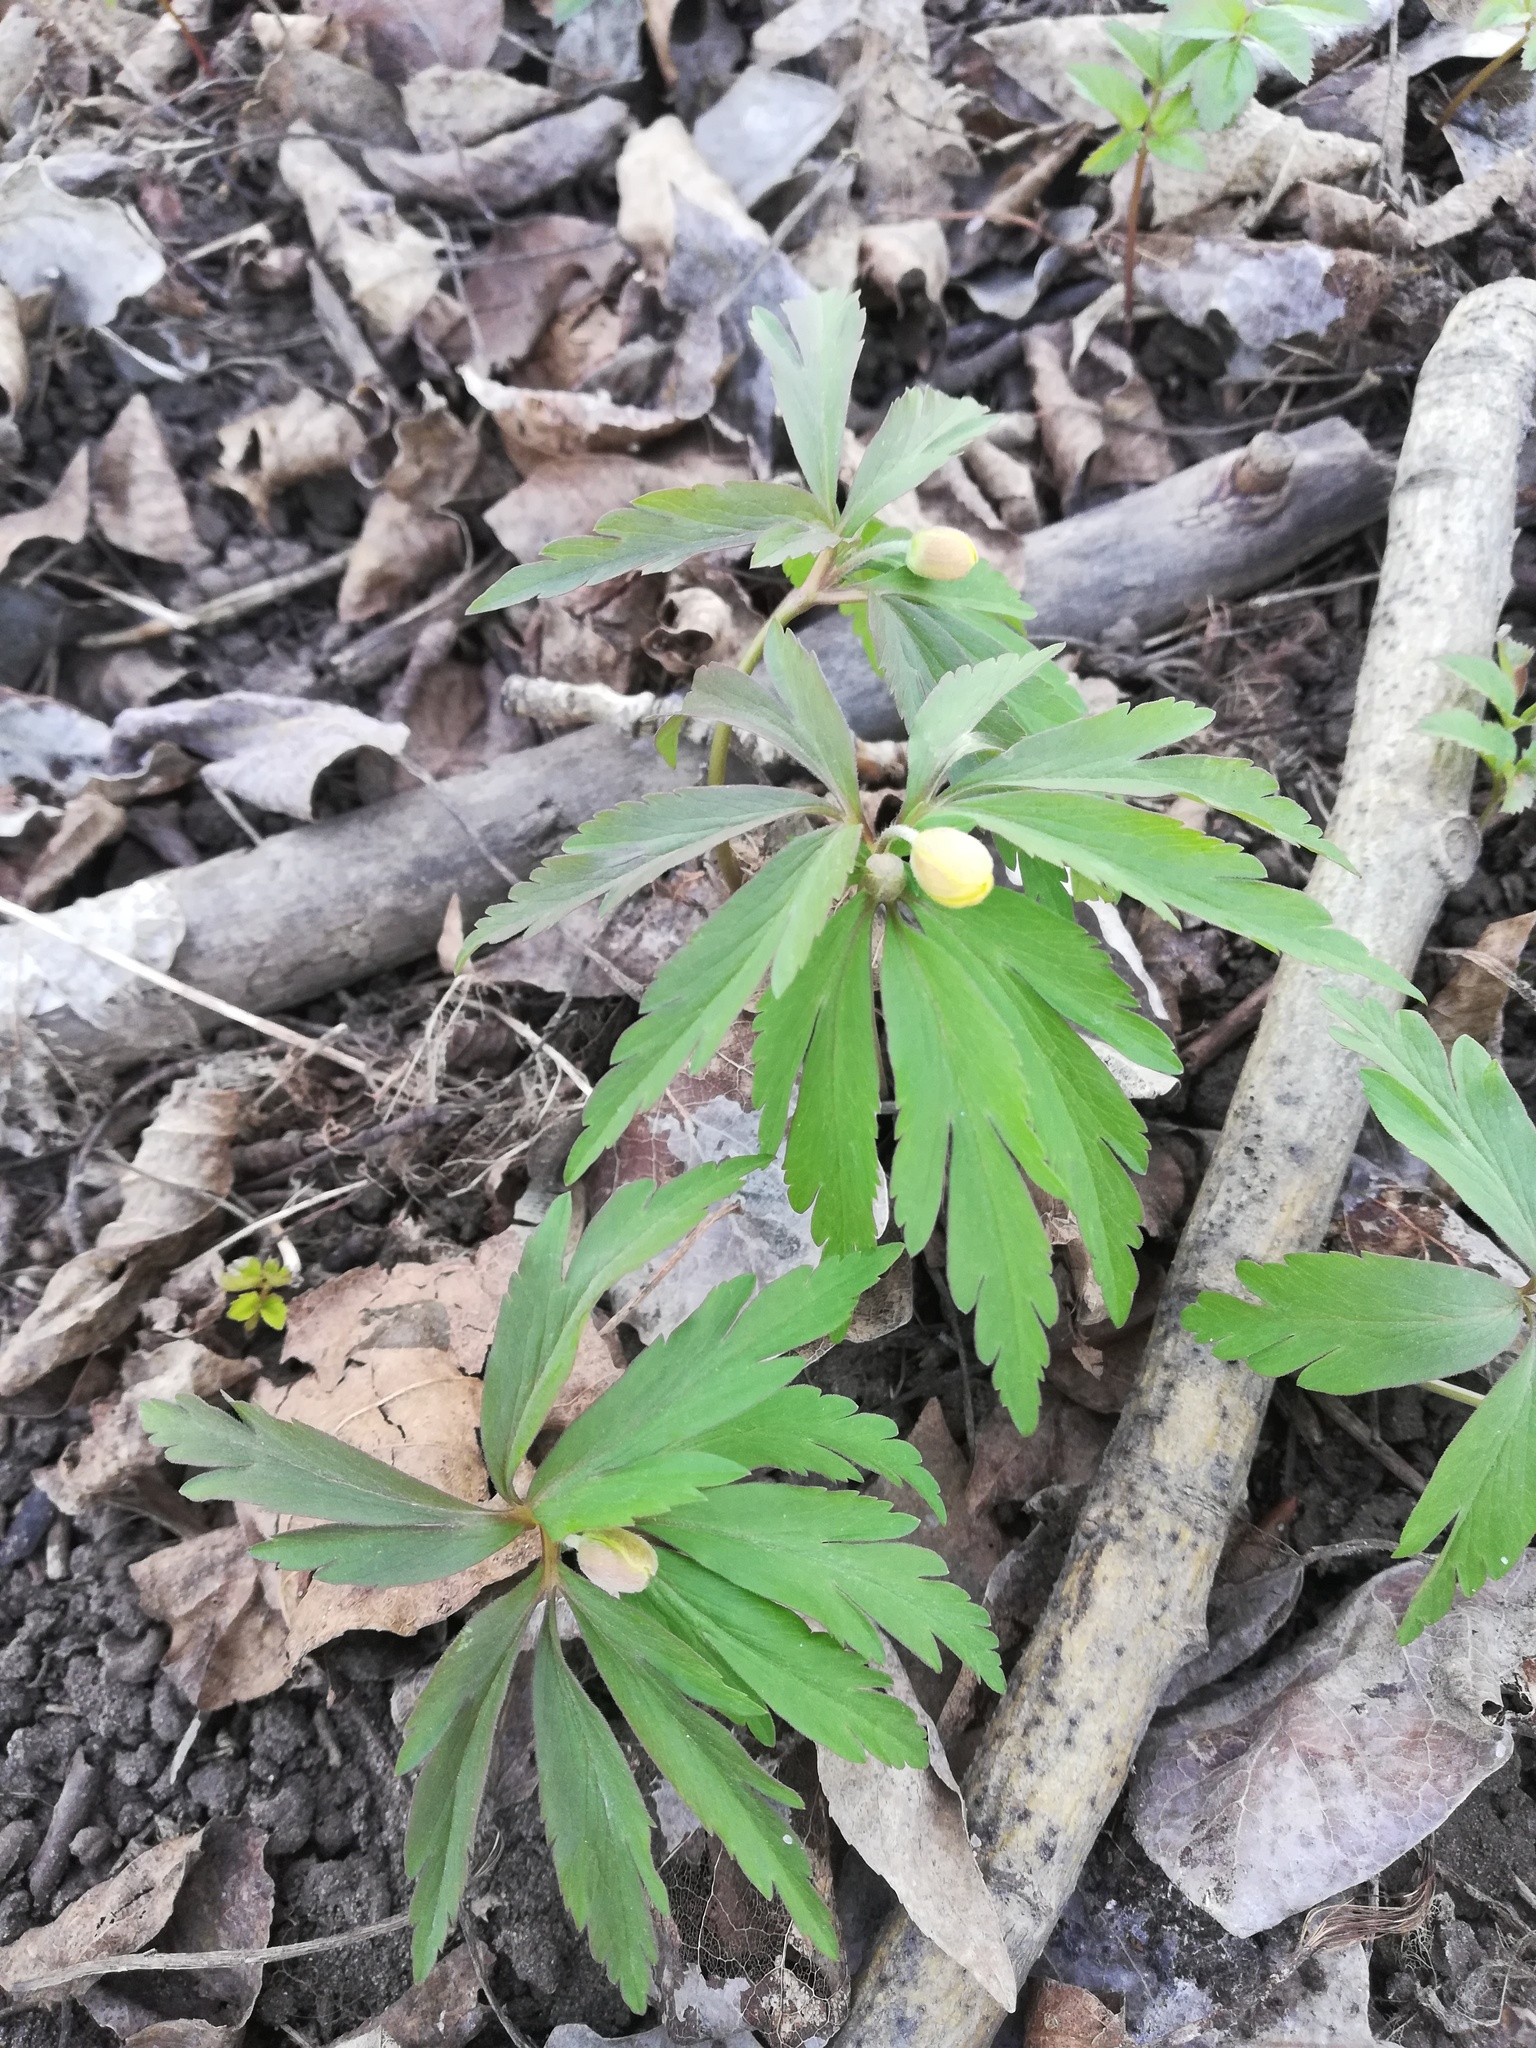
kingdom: Plantae
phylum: Tracheophyta
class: Magnoliopsida
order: Ranunculales
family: Ranunculaceae
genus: Anemone
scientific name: Anemone ranunculoides
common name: Yellow anemone
